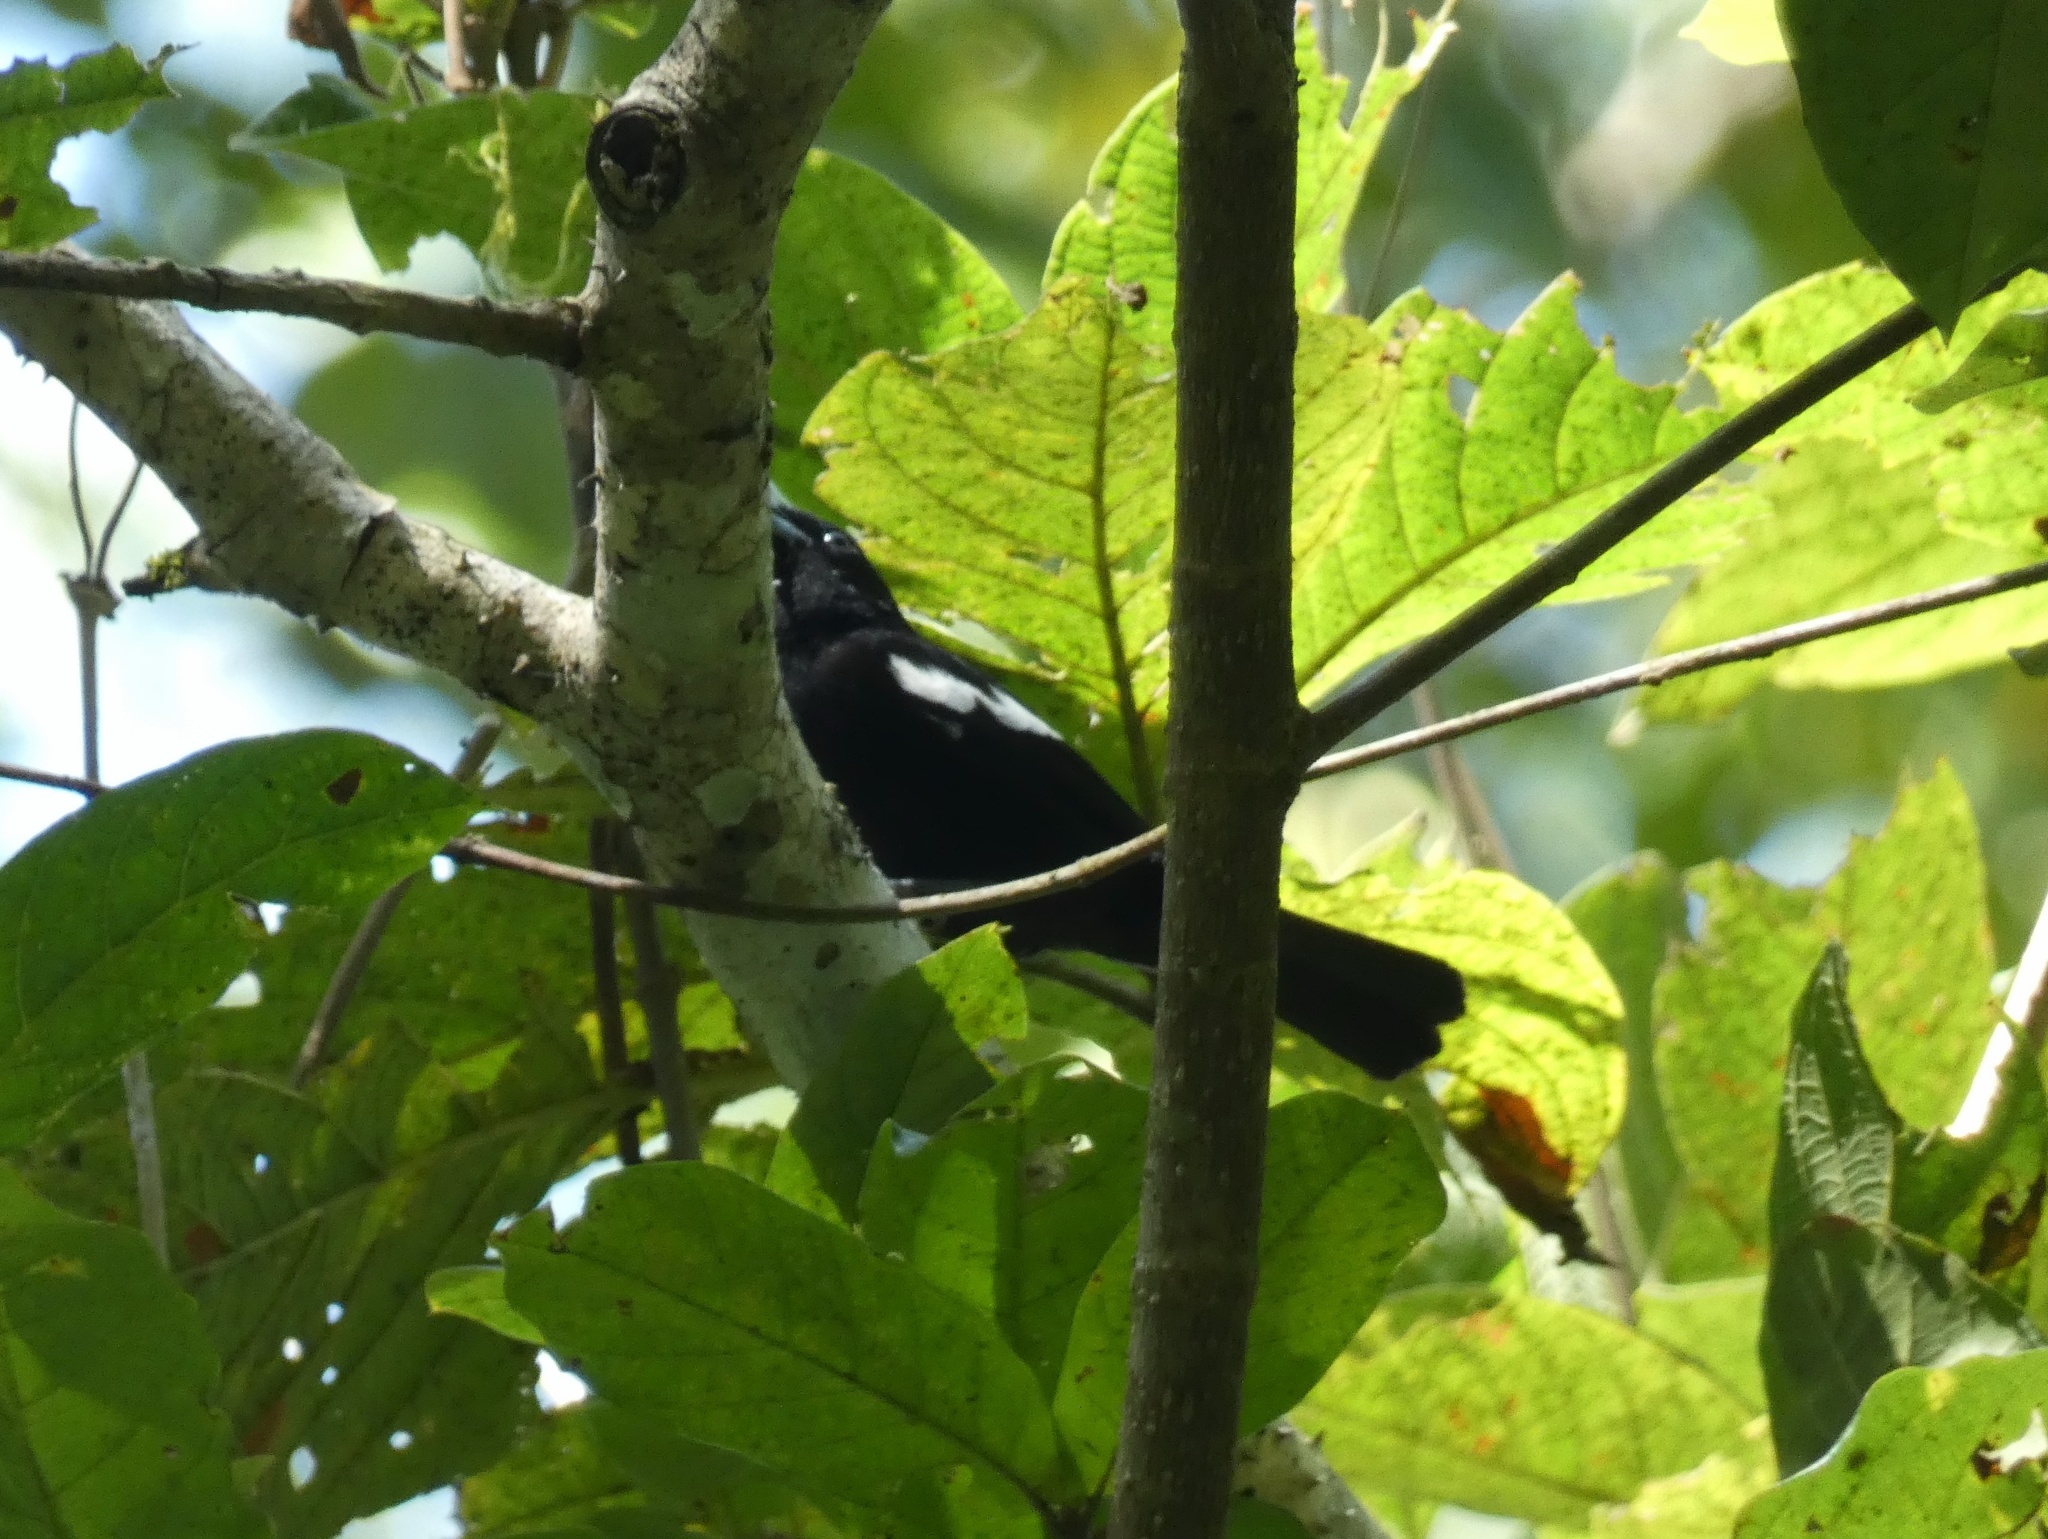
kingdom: Animalia
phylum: Chordata
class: Aves
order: Passeriformes
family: Thraupidae
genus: Loriotus
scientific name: Loriotus luctuosus
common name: White-shouldered tanager
